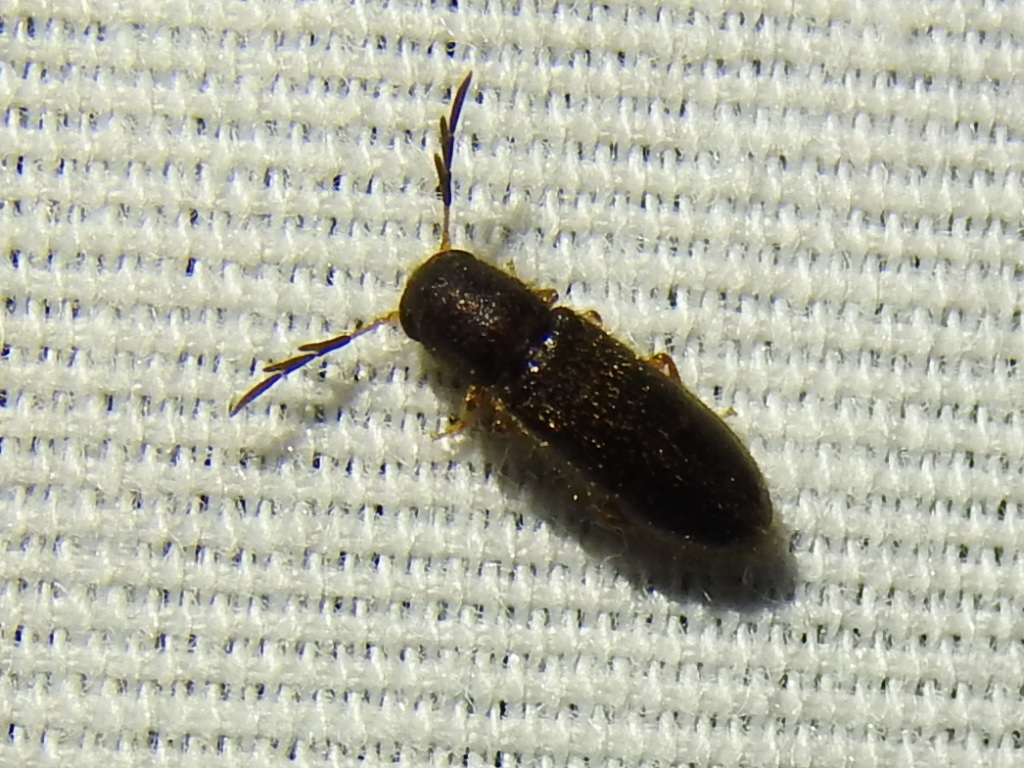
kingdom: Animalia
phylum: Arthropoda
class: Insecta
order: Coleoptera
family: Cleridae
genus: Neorthopleura
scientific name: Neorthopleura texana
